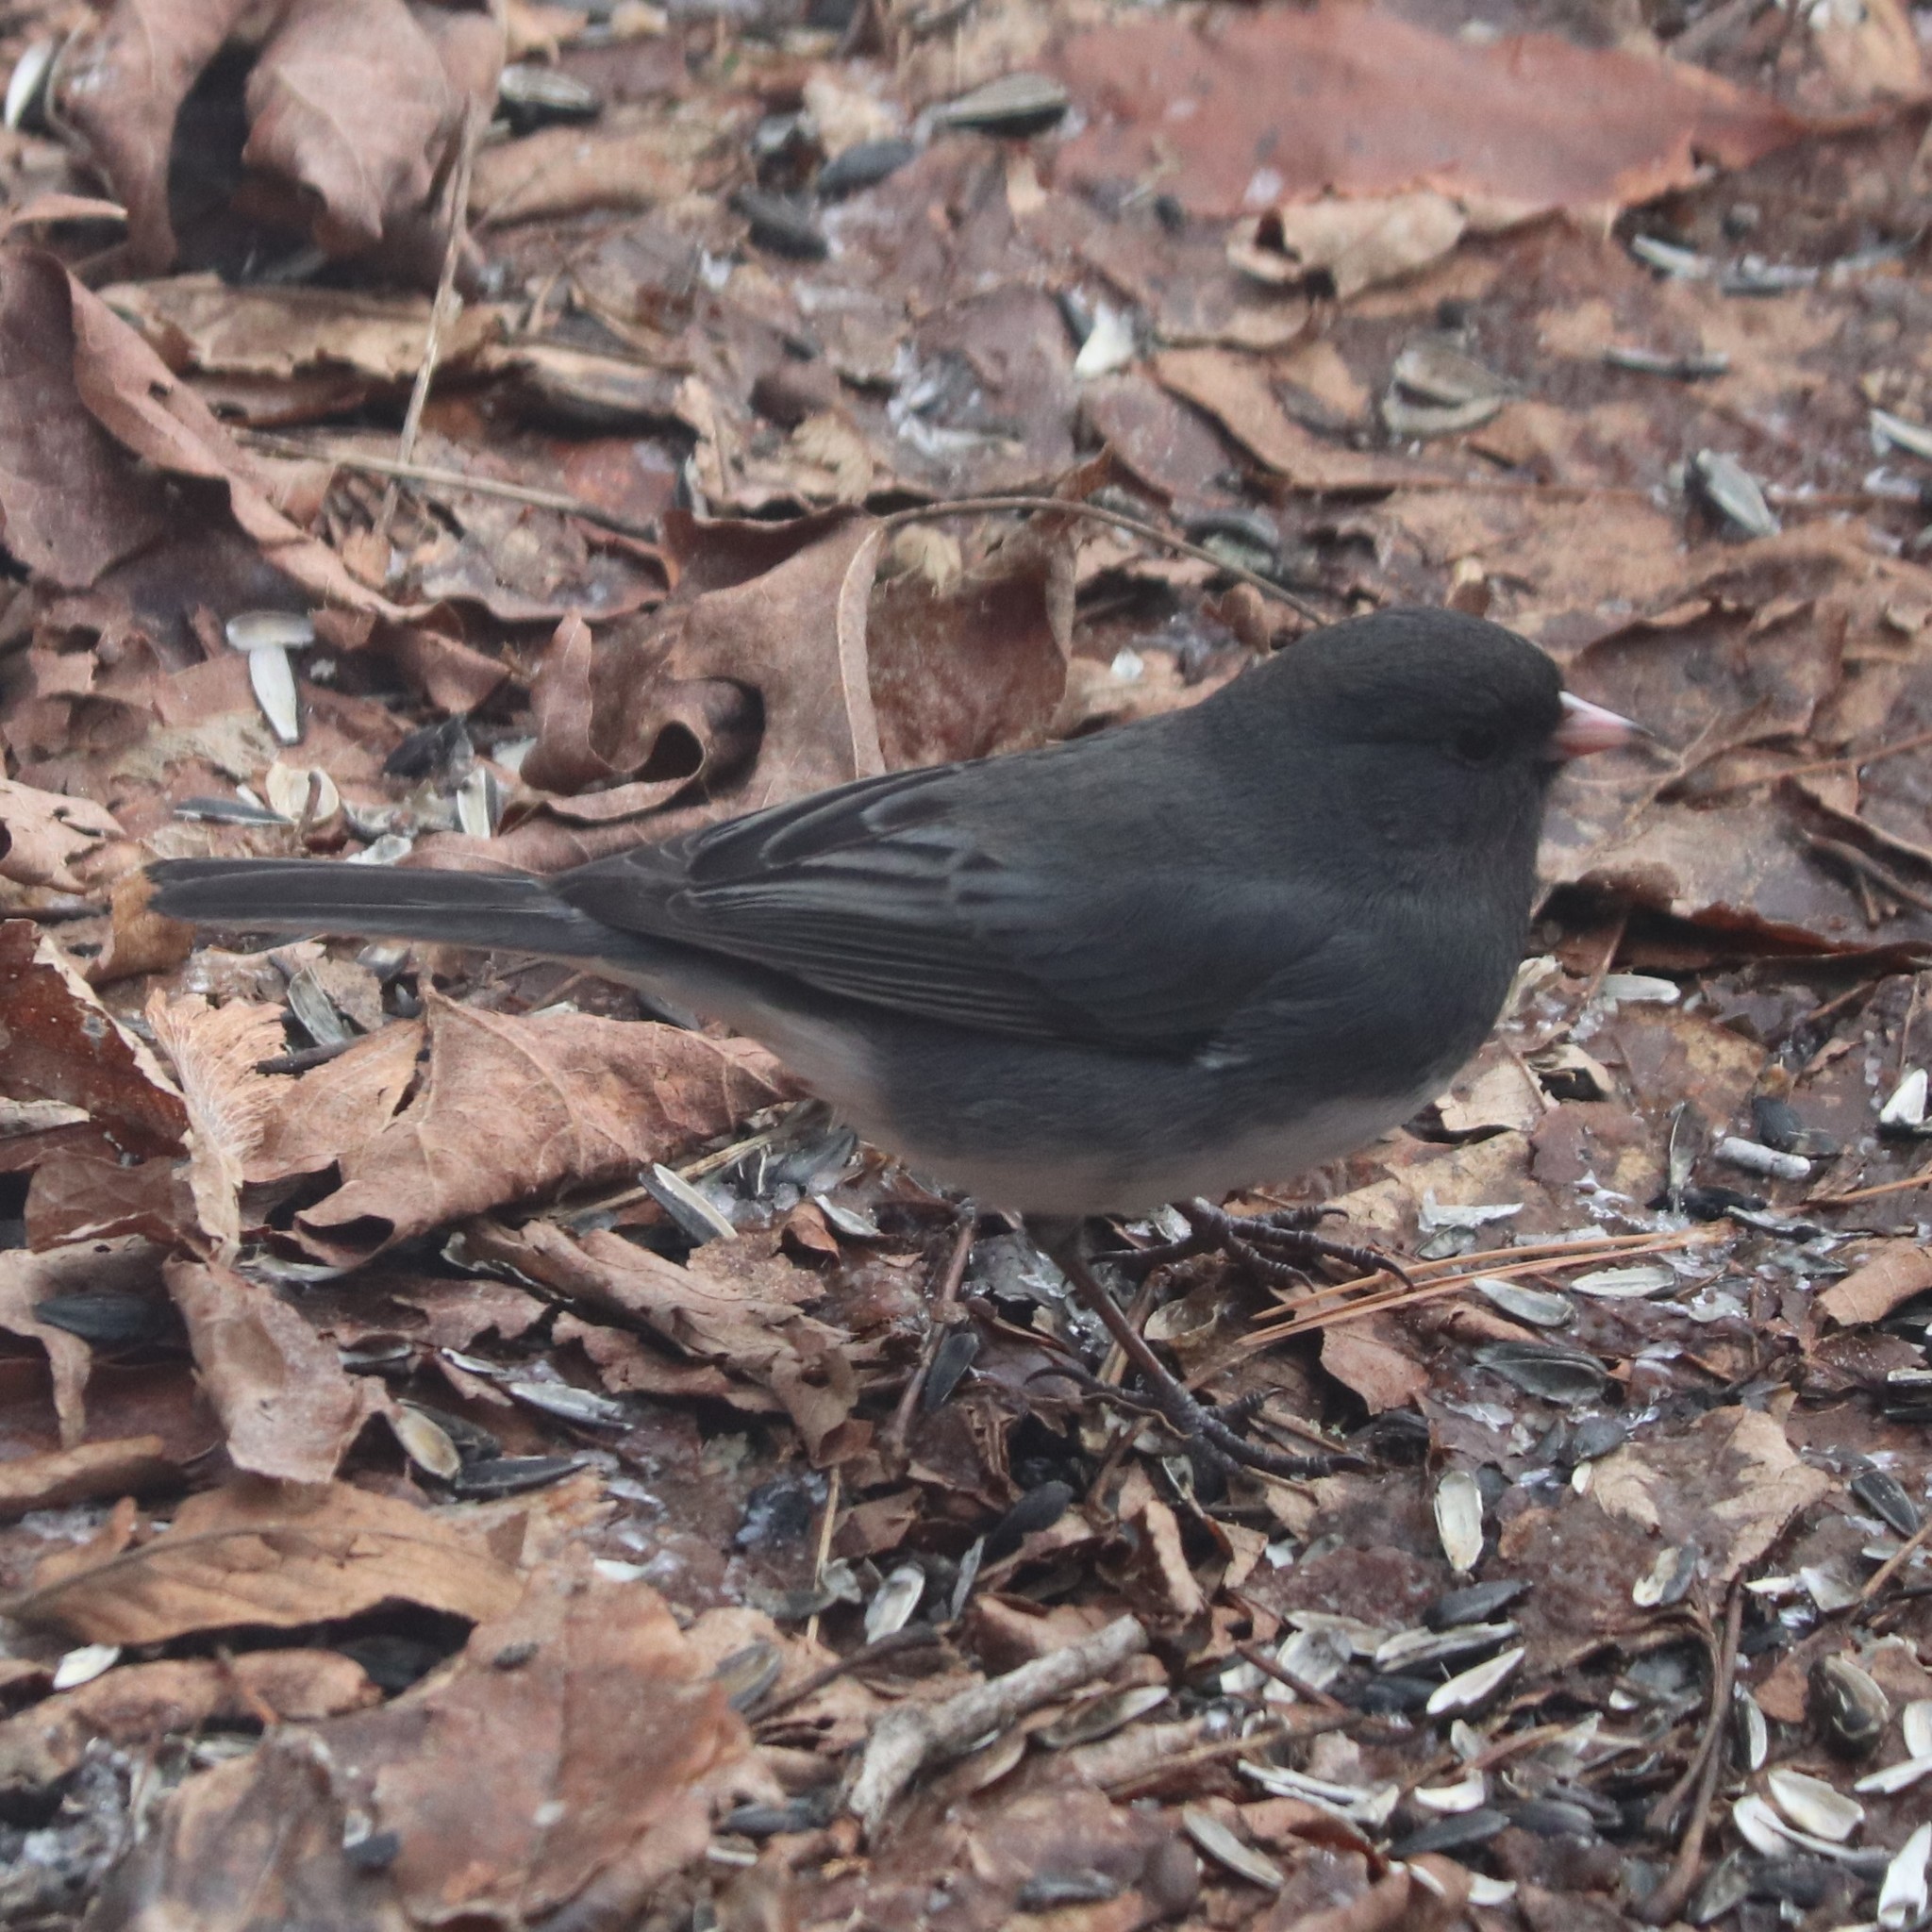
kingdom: Animalia
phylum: Chordata
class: Aves
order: Passeriformes
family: Passerellidae
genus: Junco
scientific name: Junco hyemalis
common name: Dark-eyed junco
